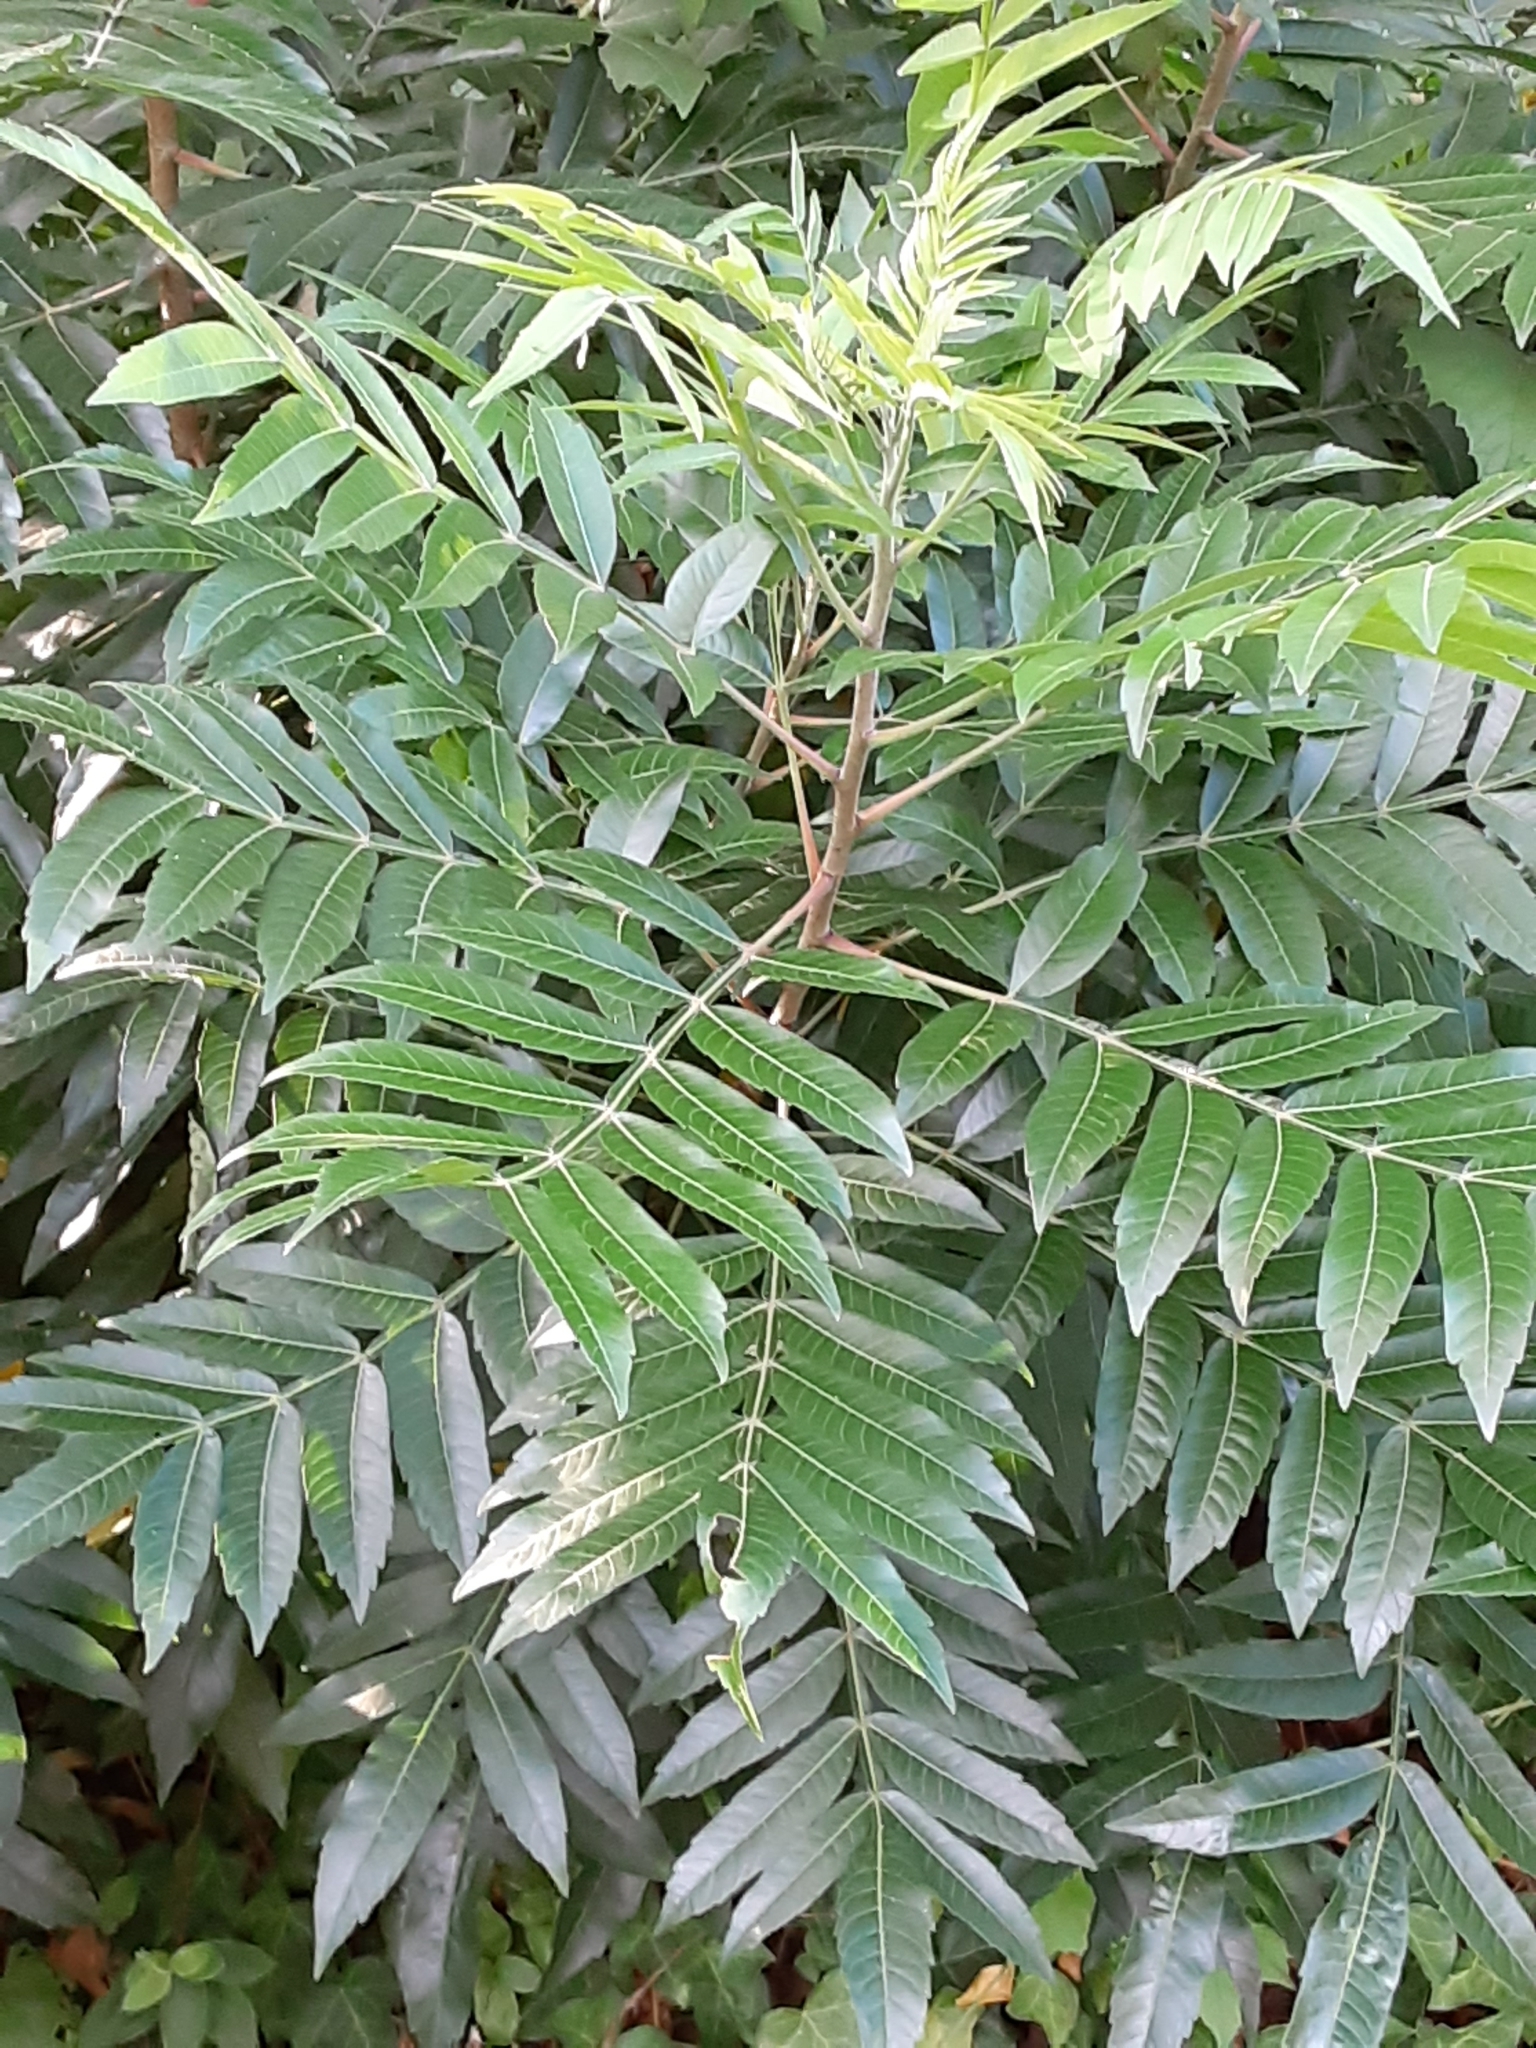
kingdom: Plantae
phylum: Tracheophyta
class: Magnoliopsida
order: Sapindales
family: Anacardiaceae
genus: Rhus
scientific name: Rhus copallina
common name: Shining sumac
